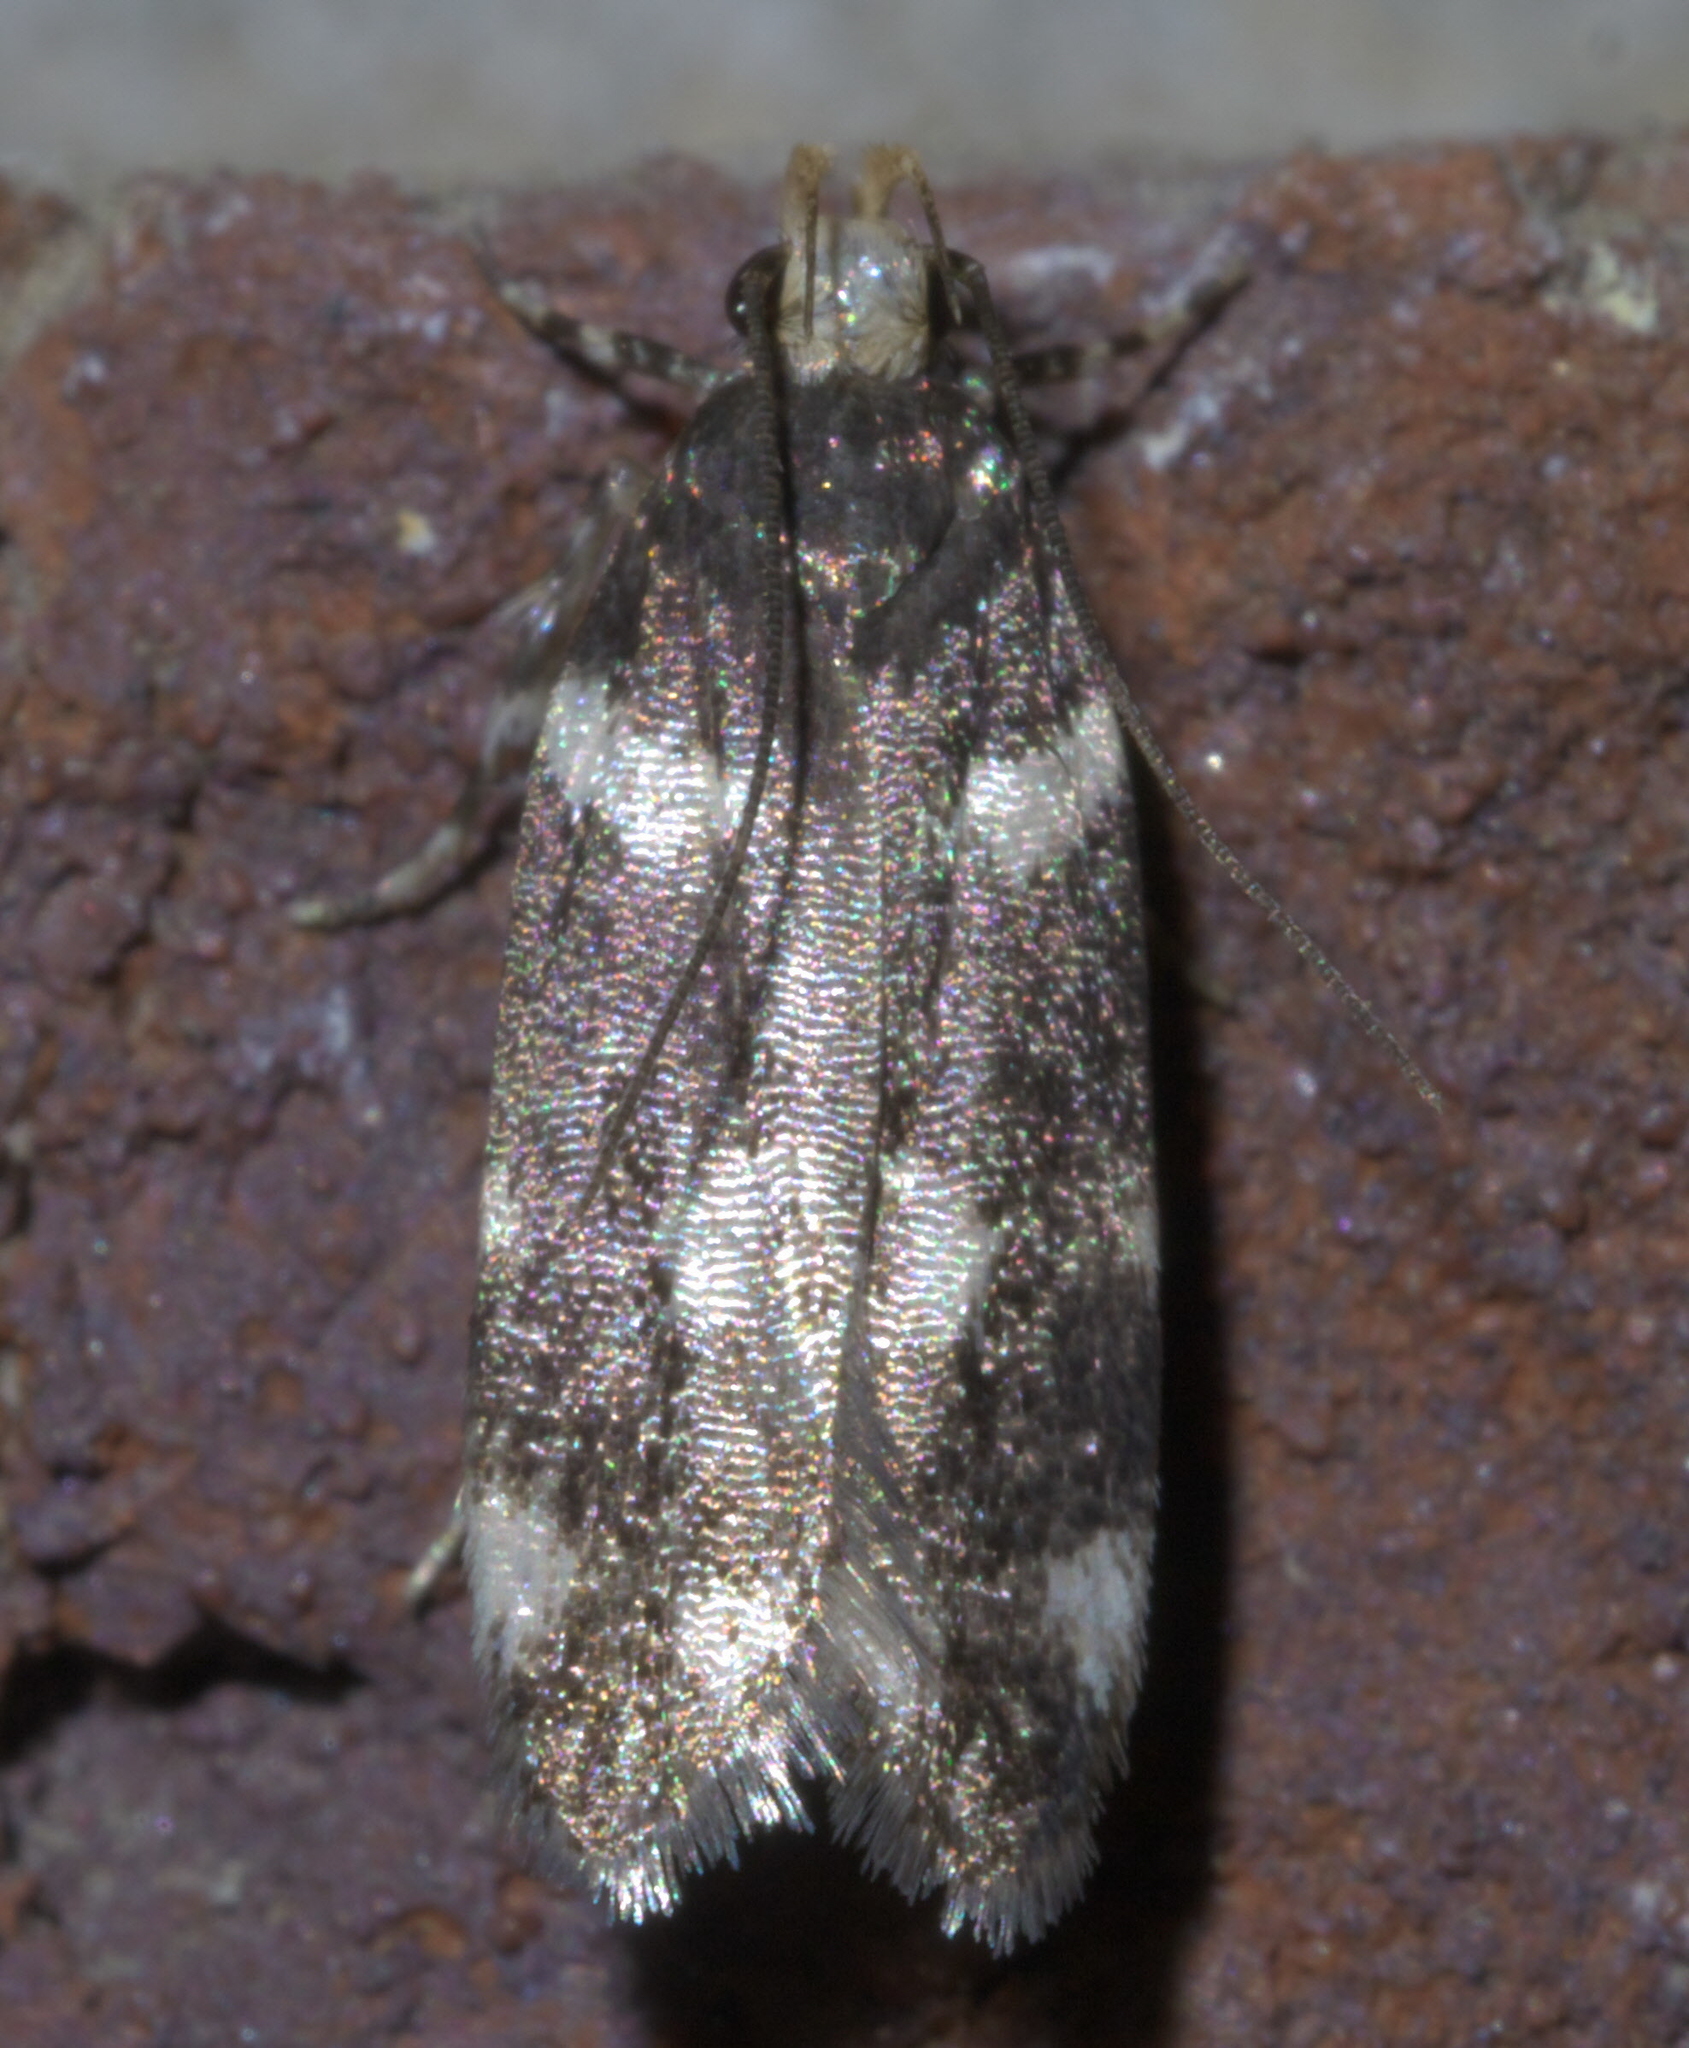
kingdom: Animalia
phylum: Arthropoda
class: Insecta
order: Lepidoptera
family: Gelechiidae
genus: Fascista
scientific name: Fascista quinella
